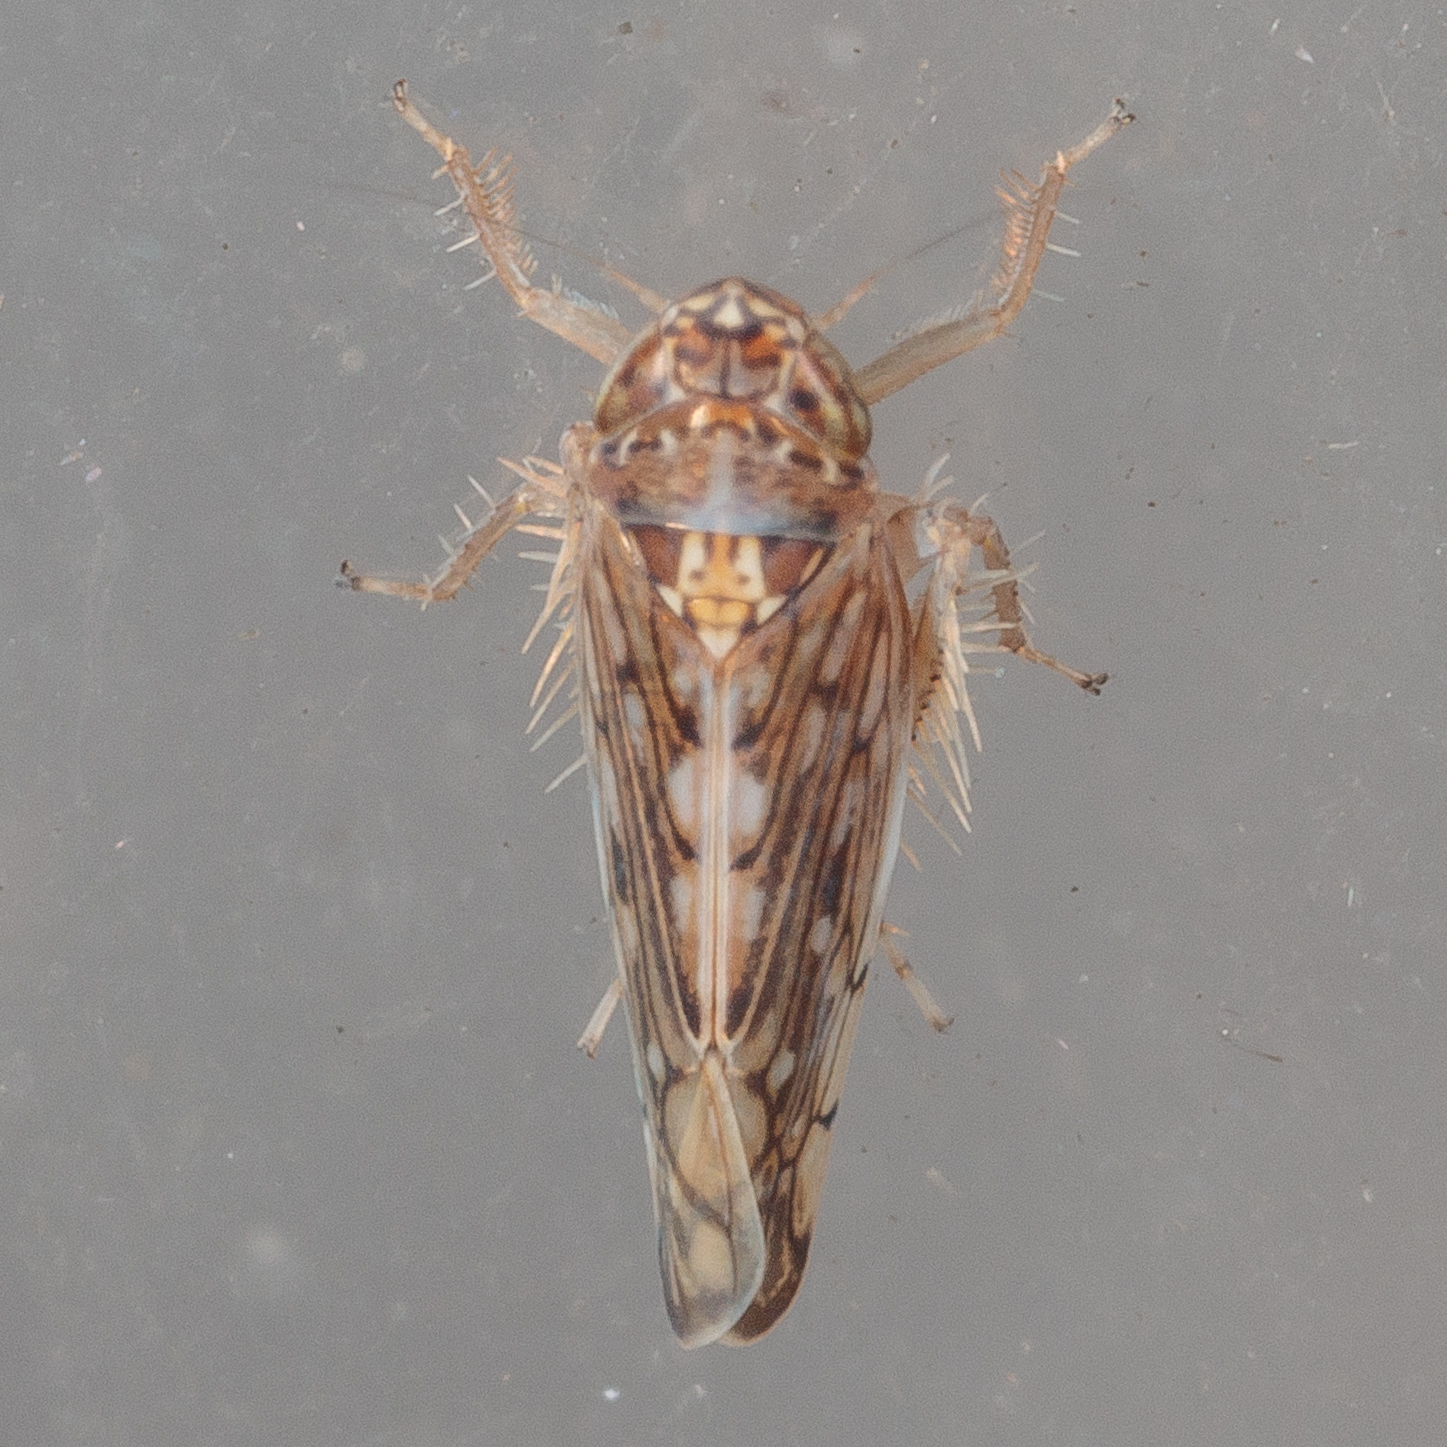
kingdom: Animalia
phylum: Arthropoda
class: Insecta
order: Hemiptera
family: Cicadellidae
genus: Osbornellus
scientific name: Osbornellus clarus
